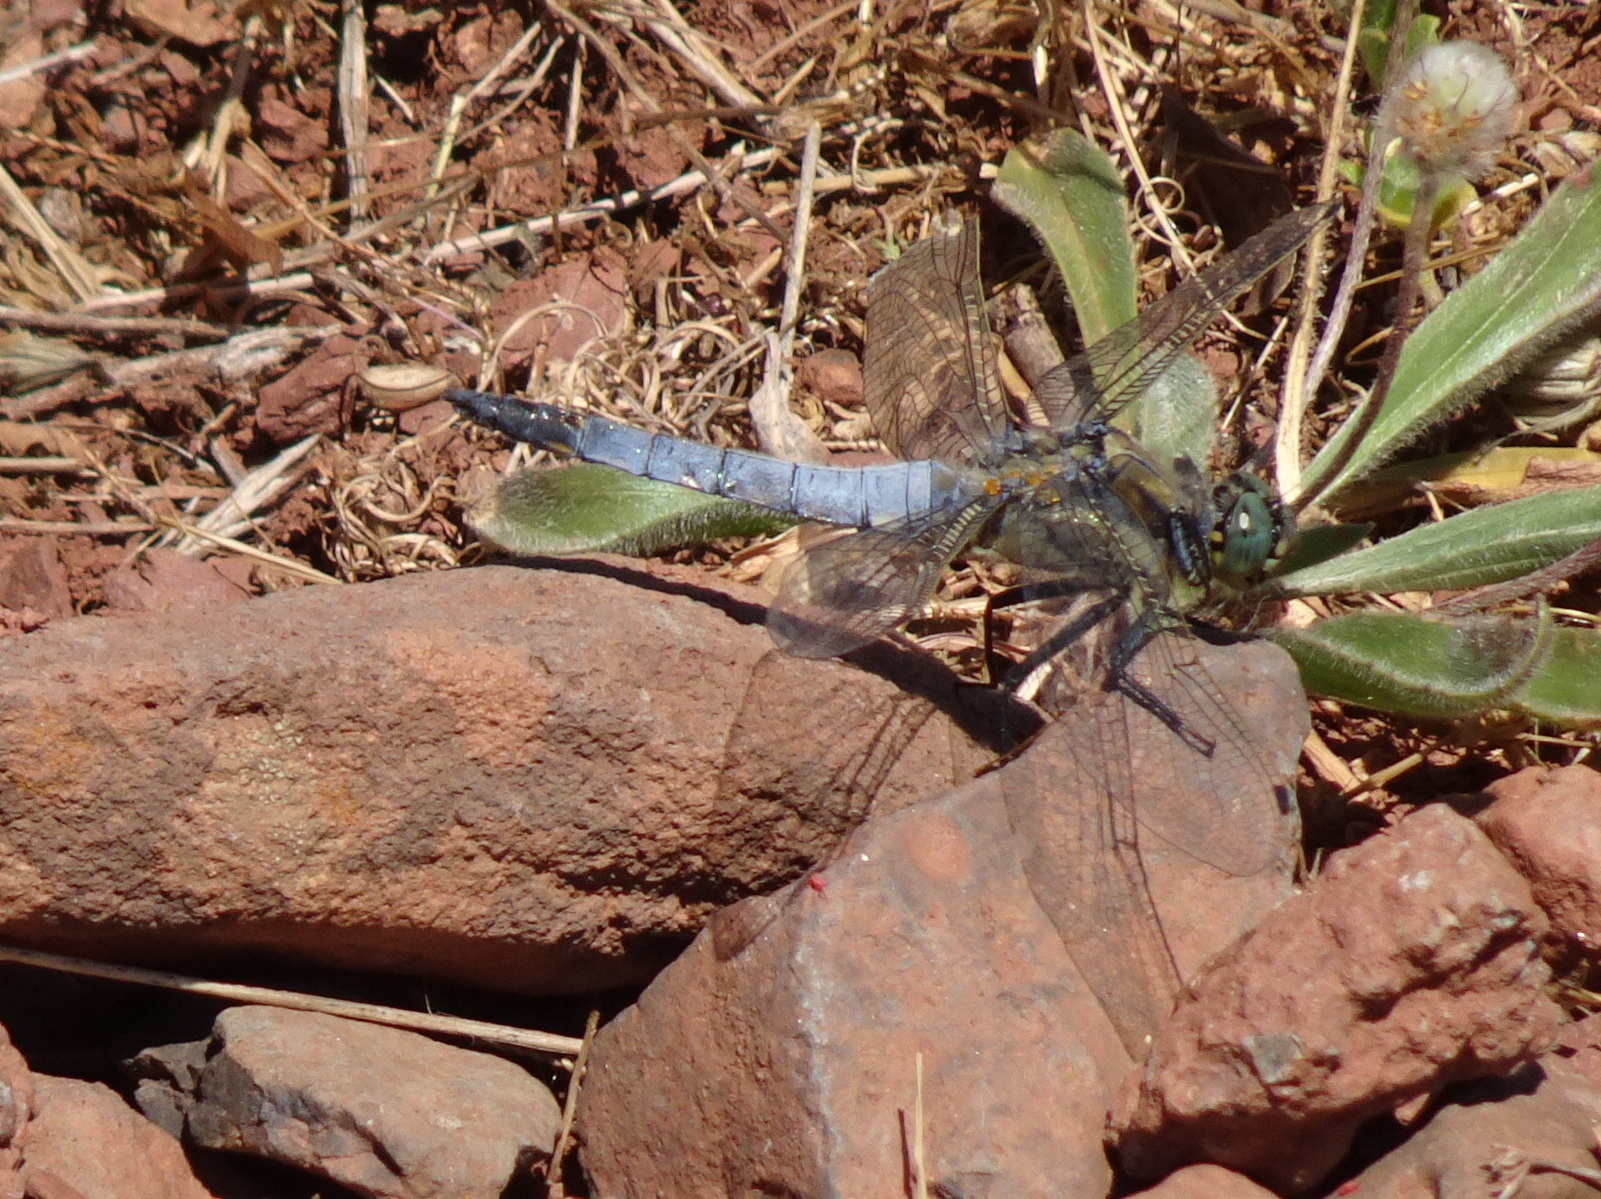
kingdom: Animalia
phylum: Arthropoda
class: Insecta
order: Odonata
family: Libellulidae
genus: Orthetrum
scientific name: Orthetrum cancellatum
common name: Black-tailed skimmer
